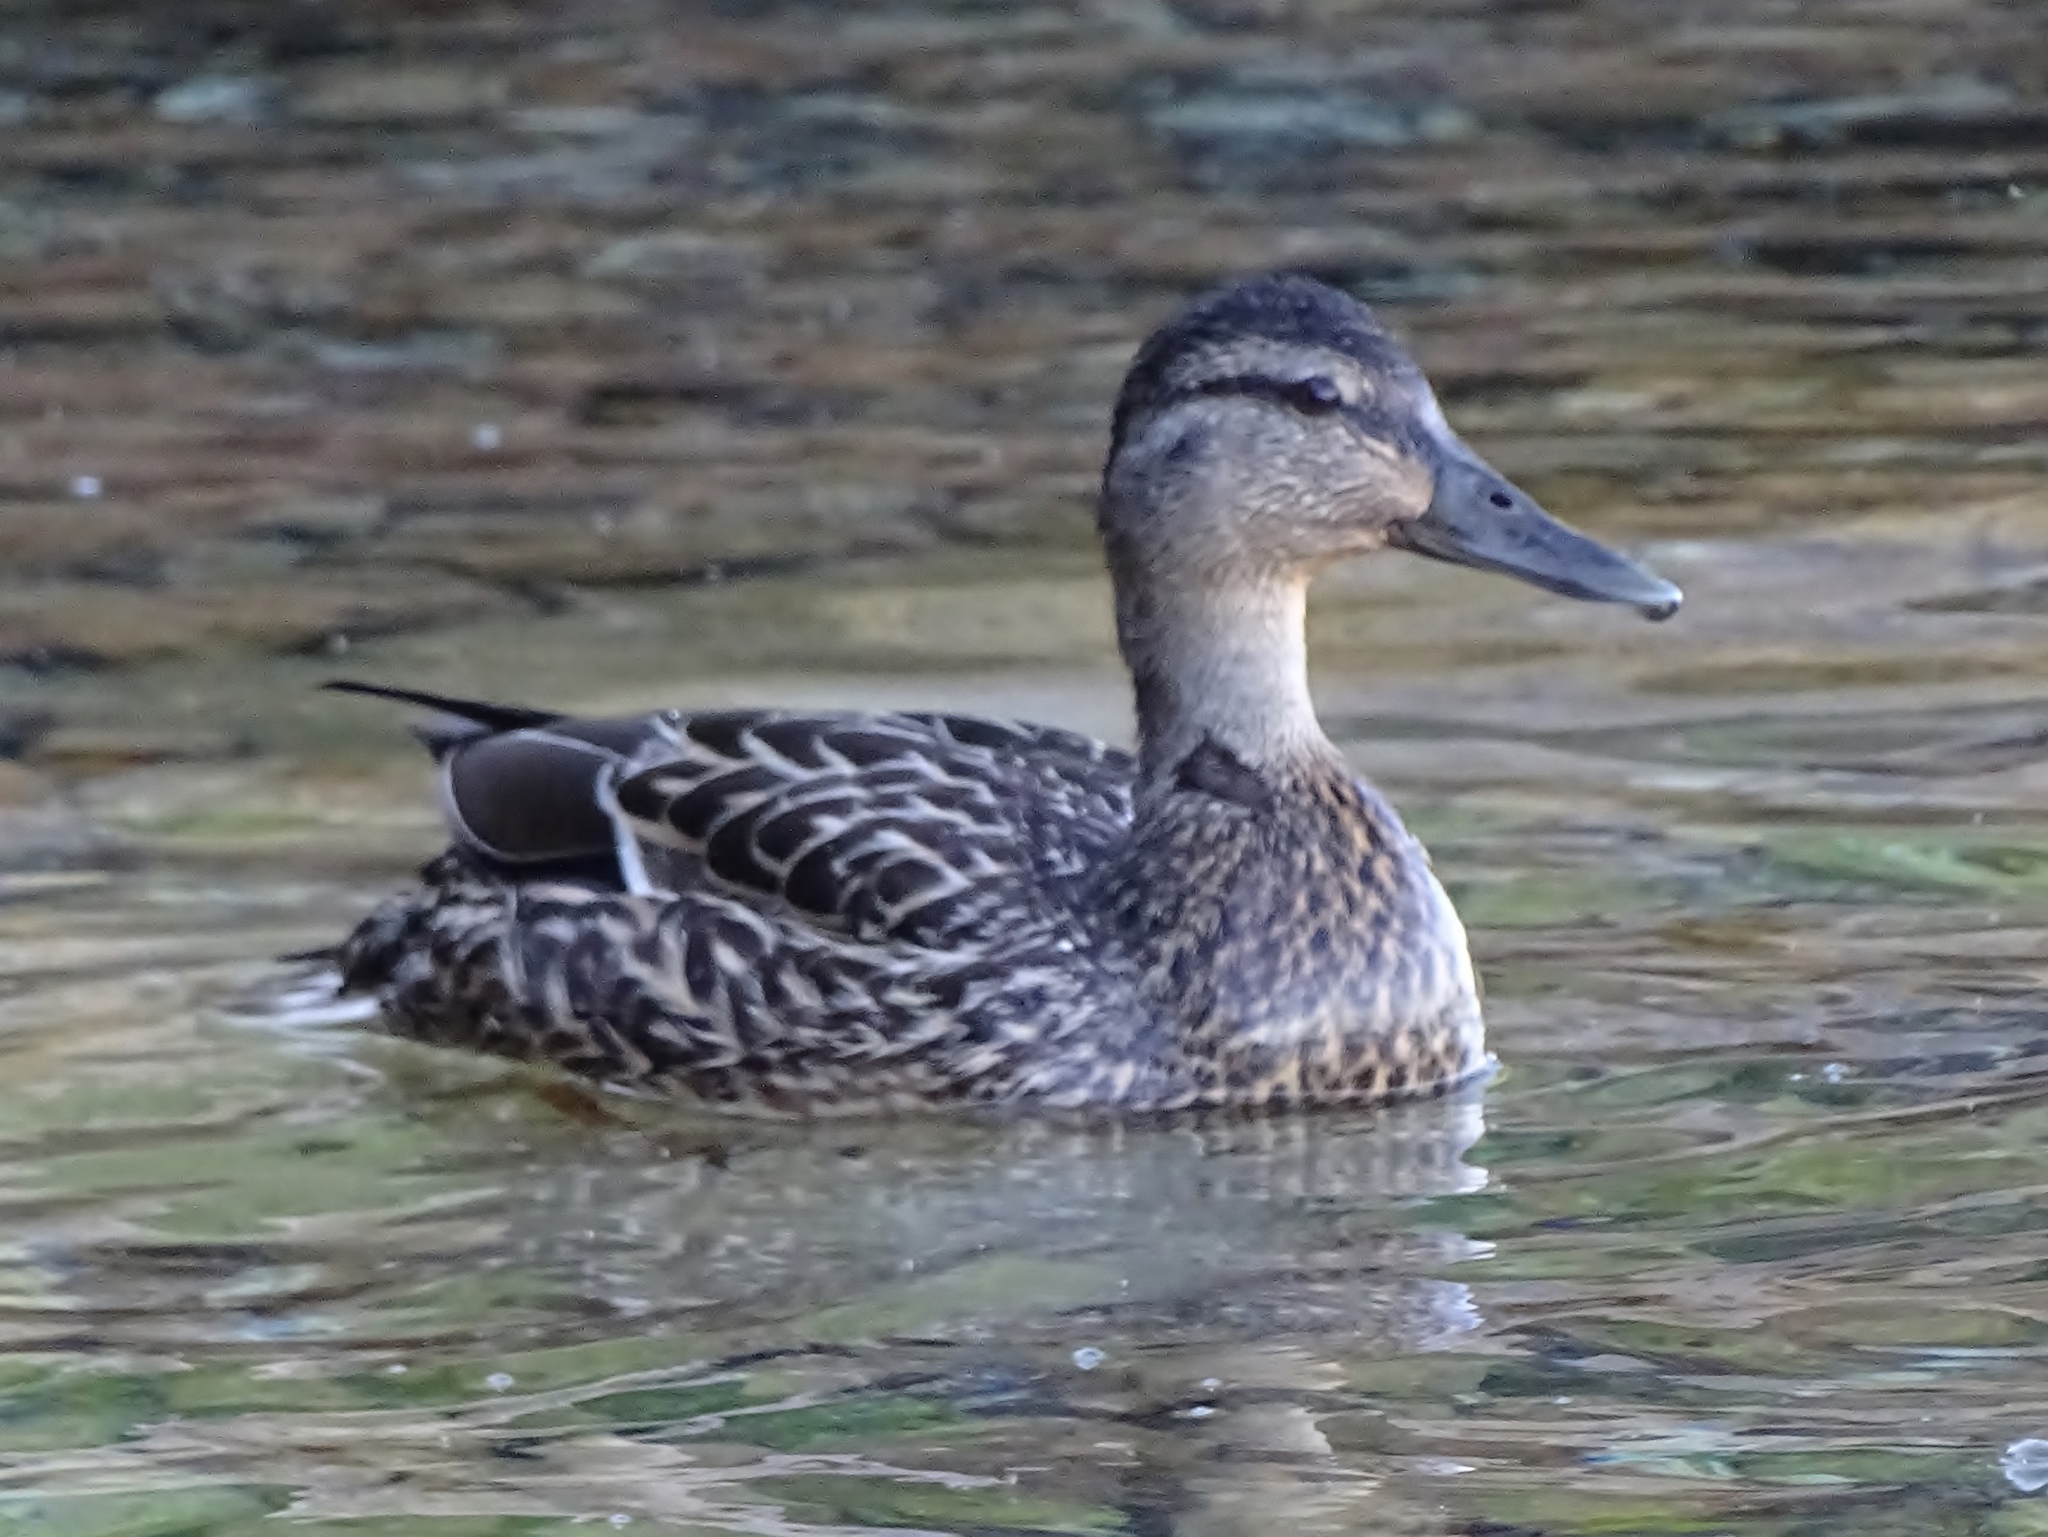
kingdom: Animalia
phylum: Chordata
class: Aves
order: Anseriformes
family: Anatidae
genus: Anas
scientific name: Anas platyrhynchos
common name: Mallard
